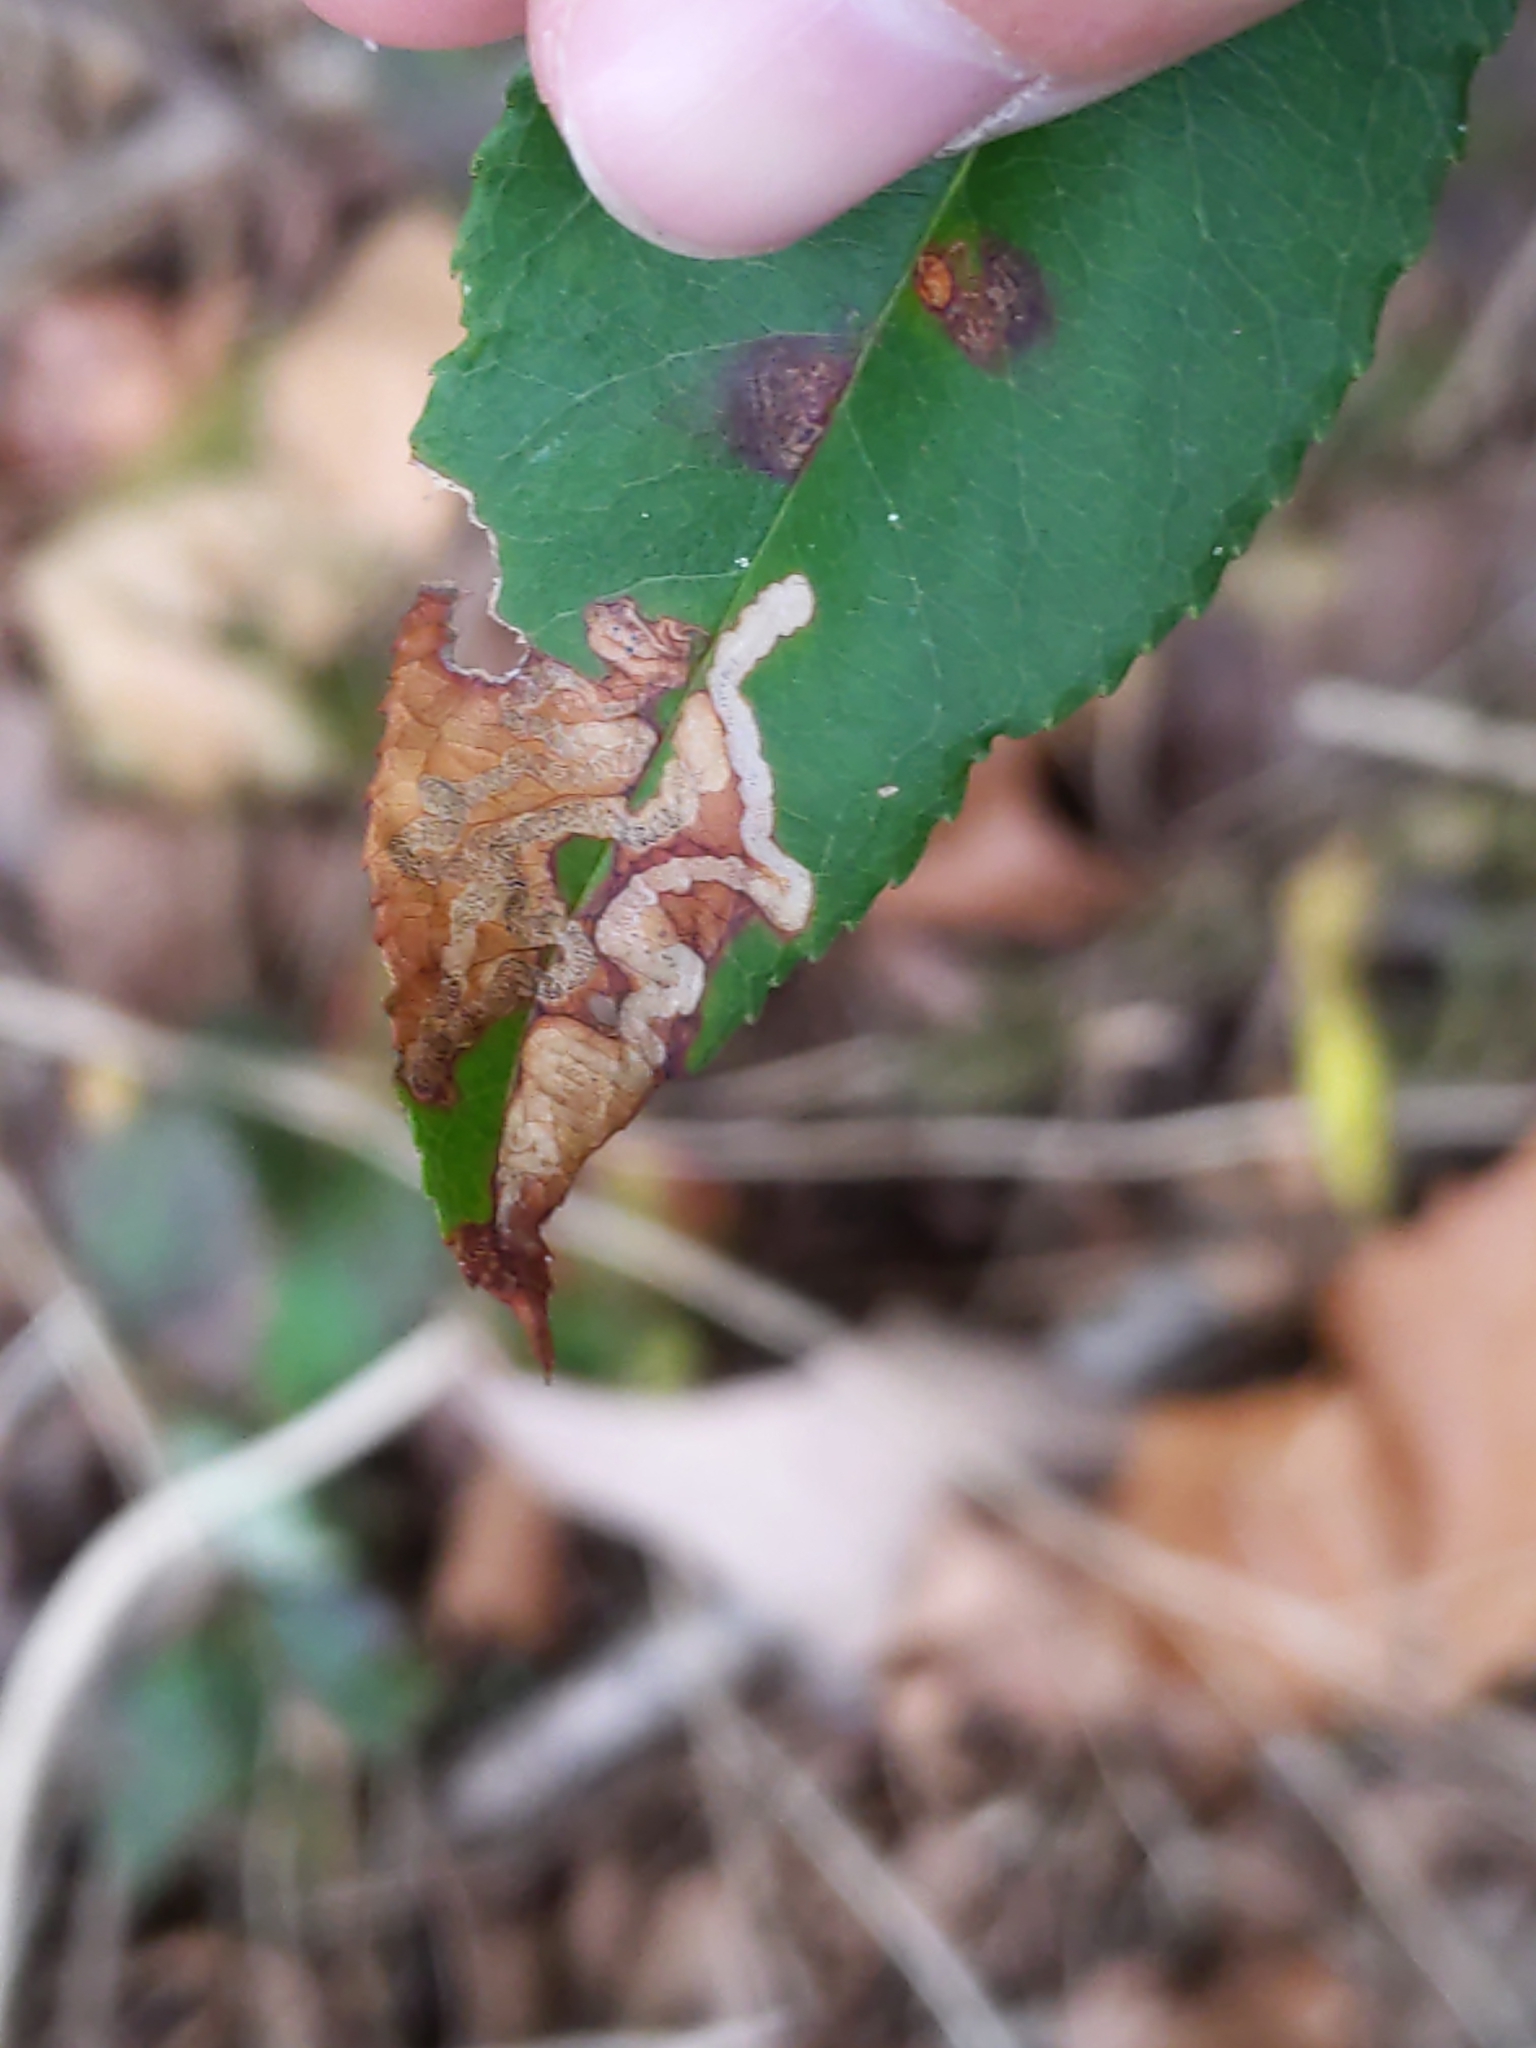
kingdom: Animalia
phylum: Arthropoda
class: Insecta
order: Lepidoptera
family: Nepticulidae
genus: Stigmella
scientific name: Stigmella prunifoliella
